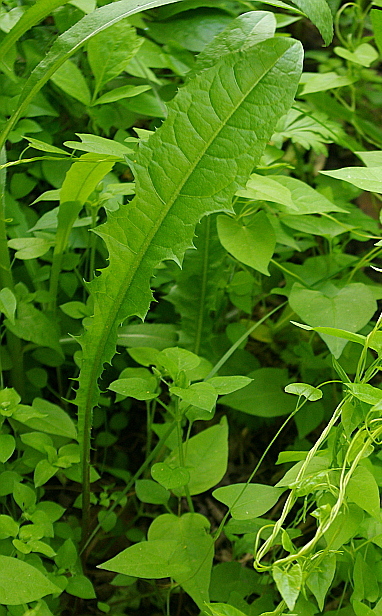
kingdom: Plantae
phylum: Tracheophyta
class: Magnoliopsida
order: Asterales
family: Asteraceae
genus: Taraxacum
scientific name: Taraxacum officinale
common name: Common dandelion
